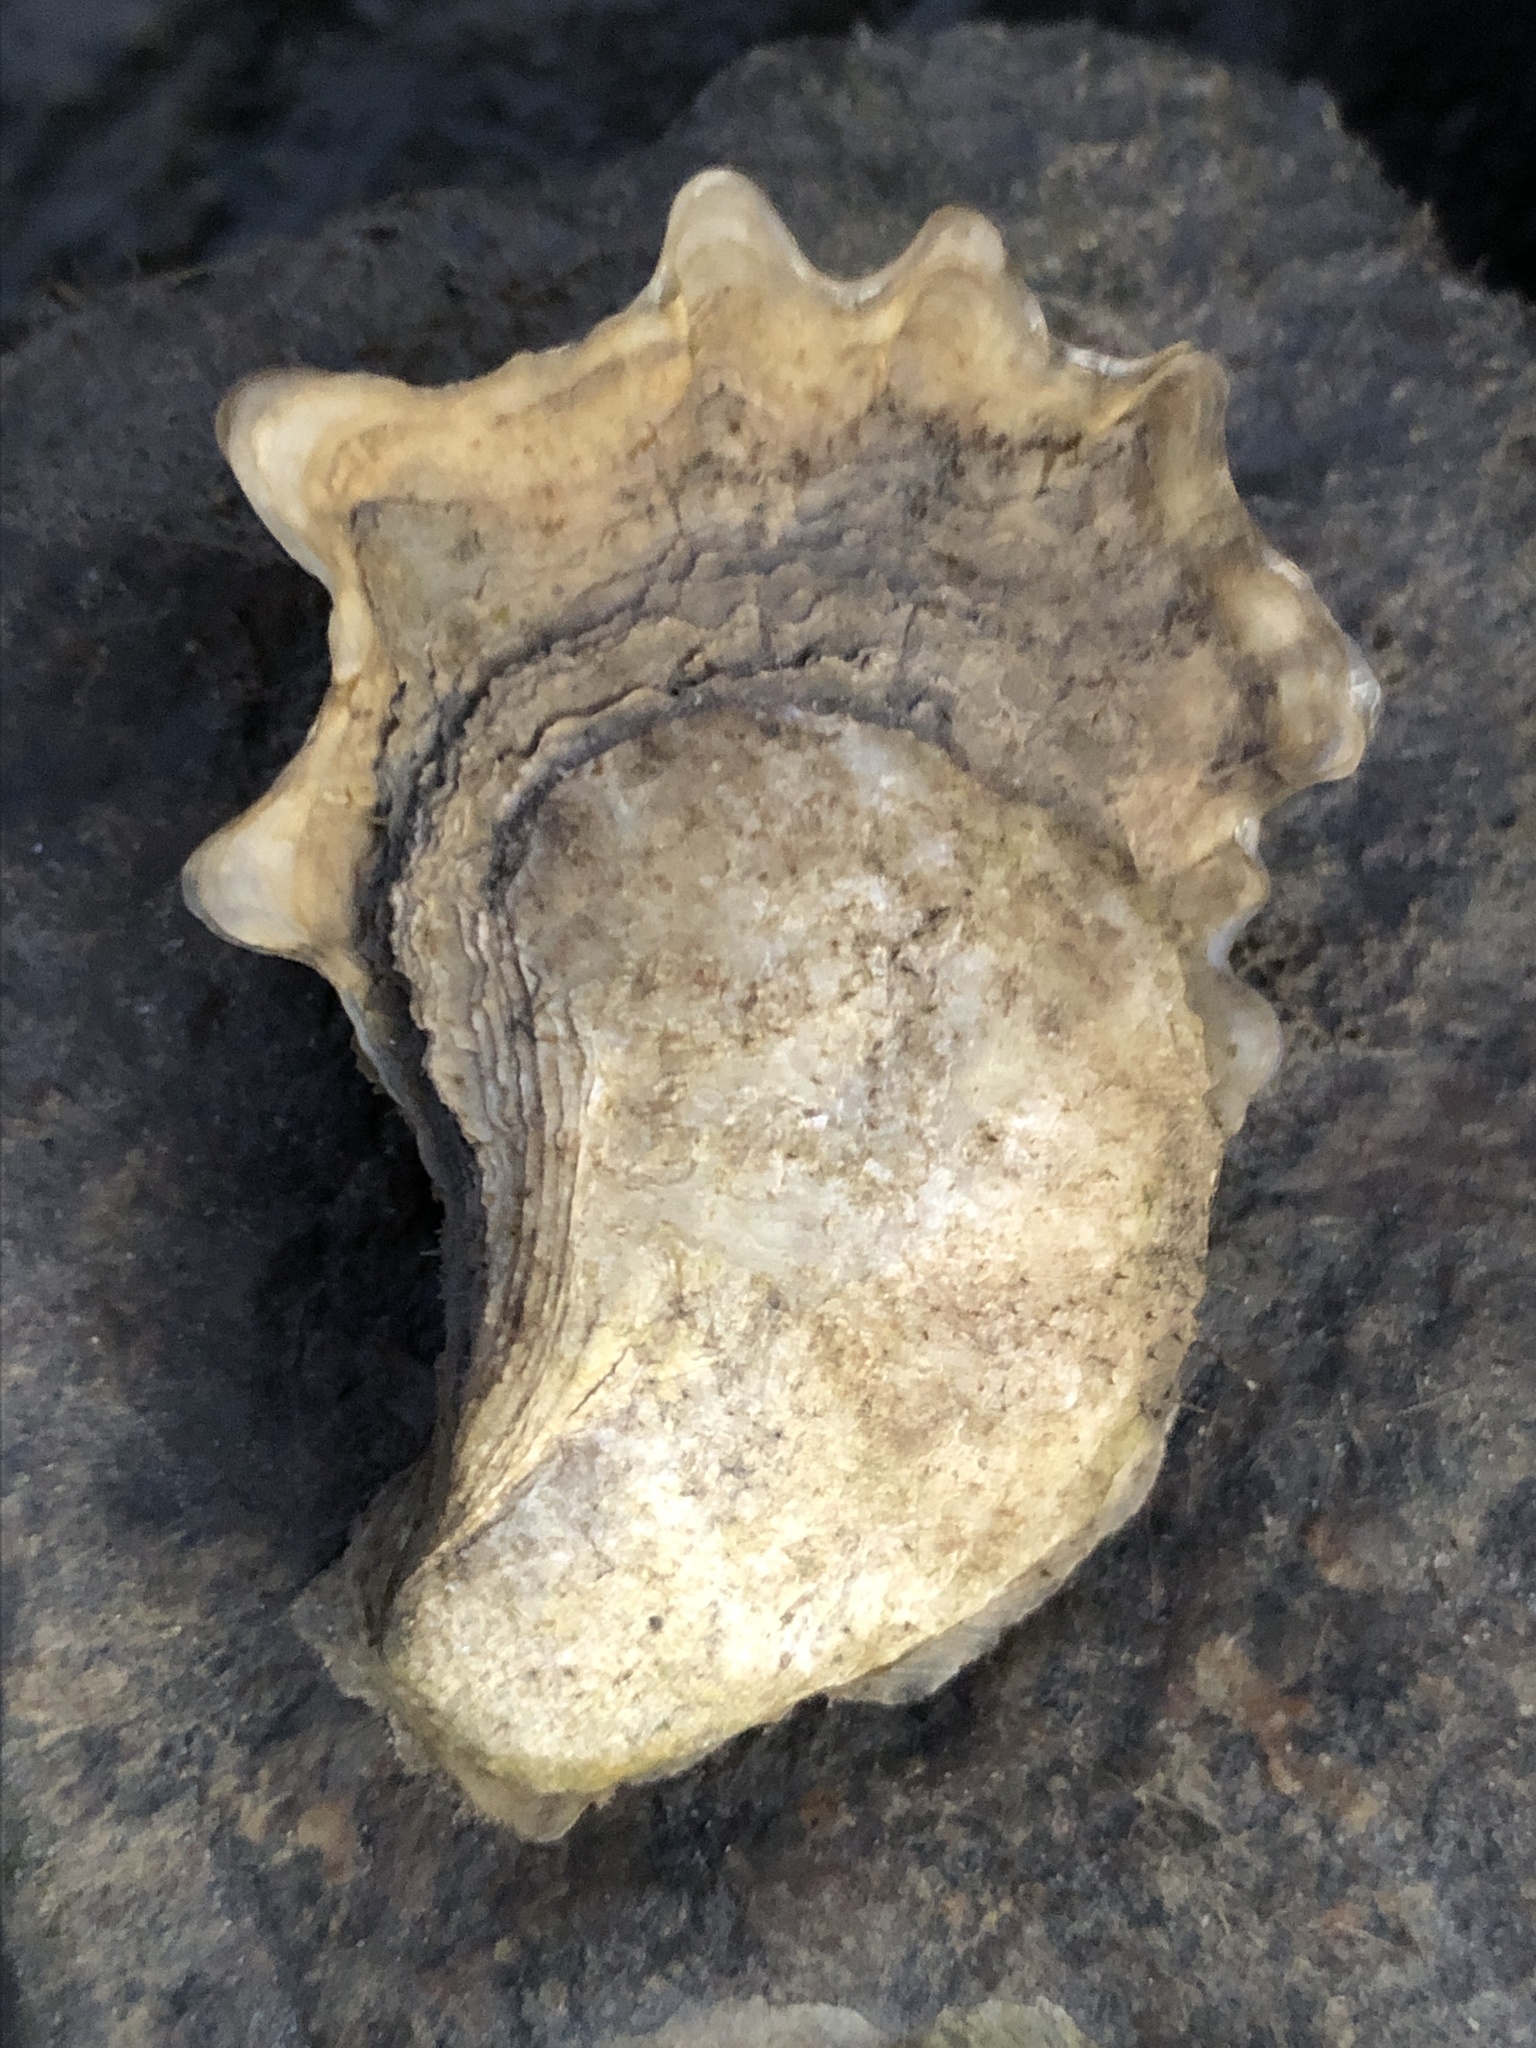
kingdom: Animalia
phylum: Mollusca
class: Bivalvia
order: Ostreida
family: Ostreidae
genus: Crassostrea
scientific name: Crassostrea virginica
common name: American oyster
